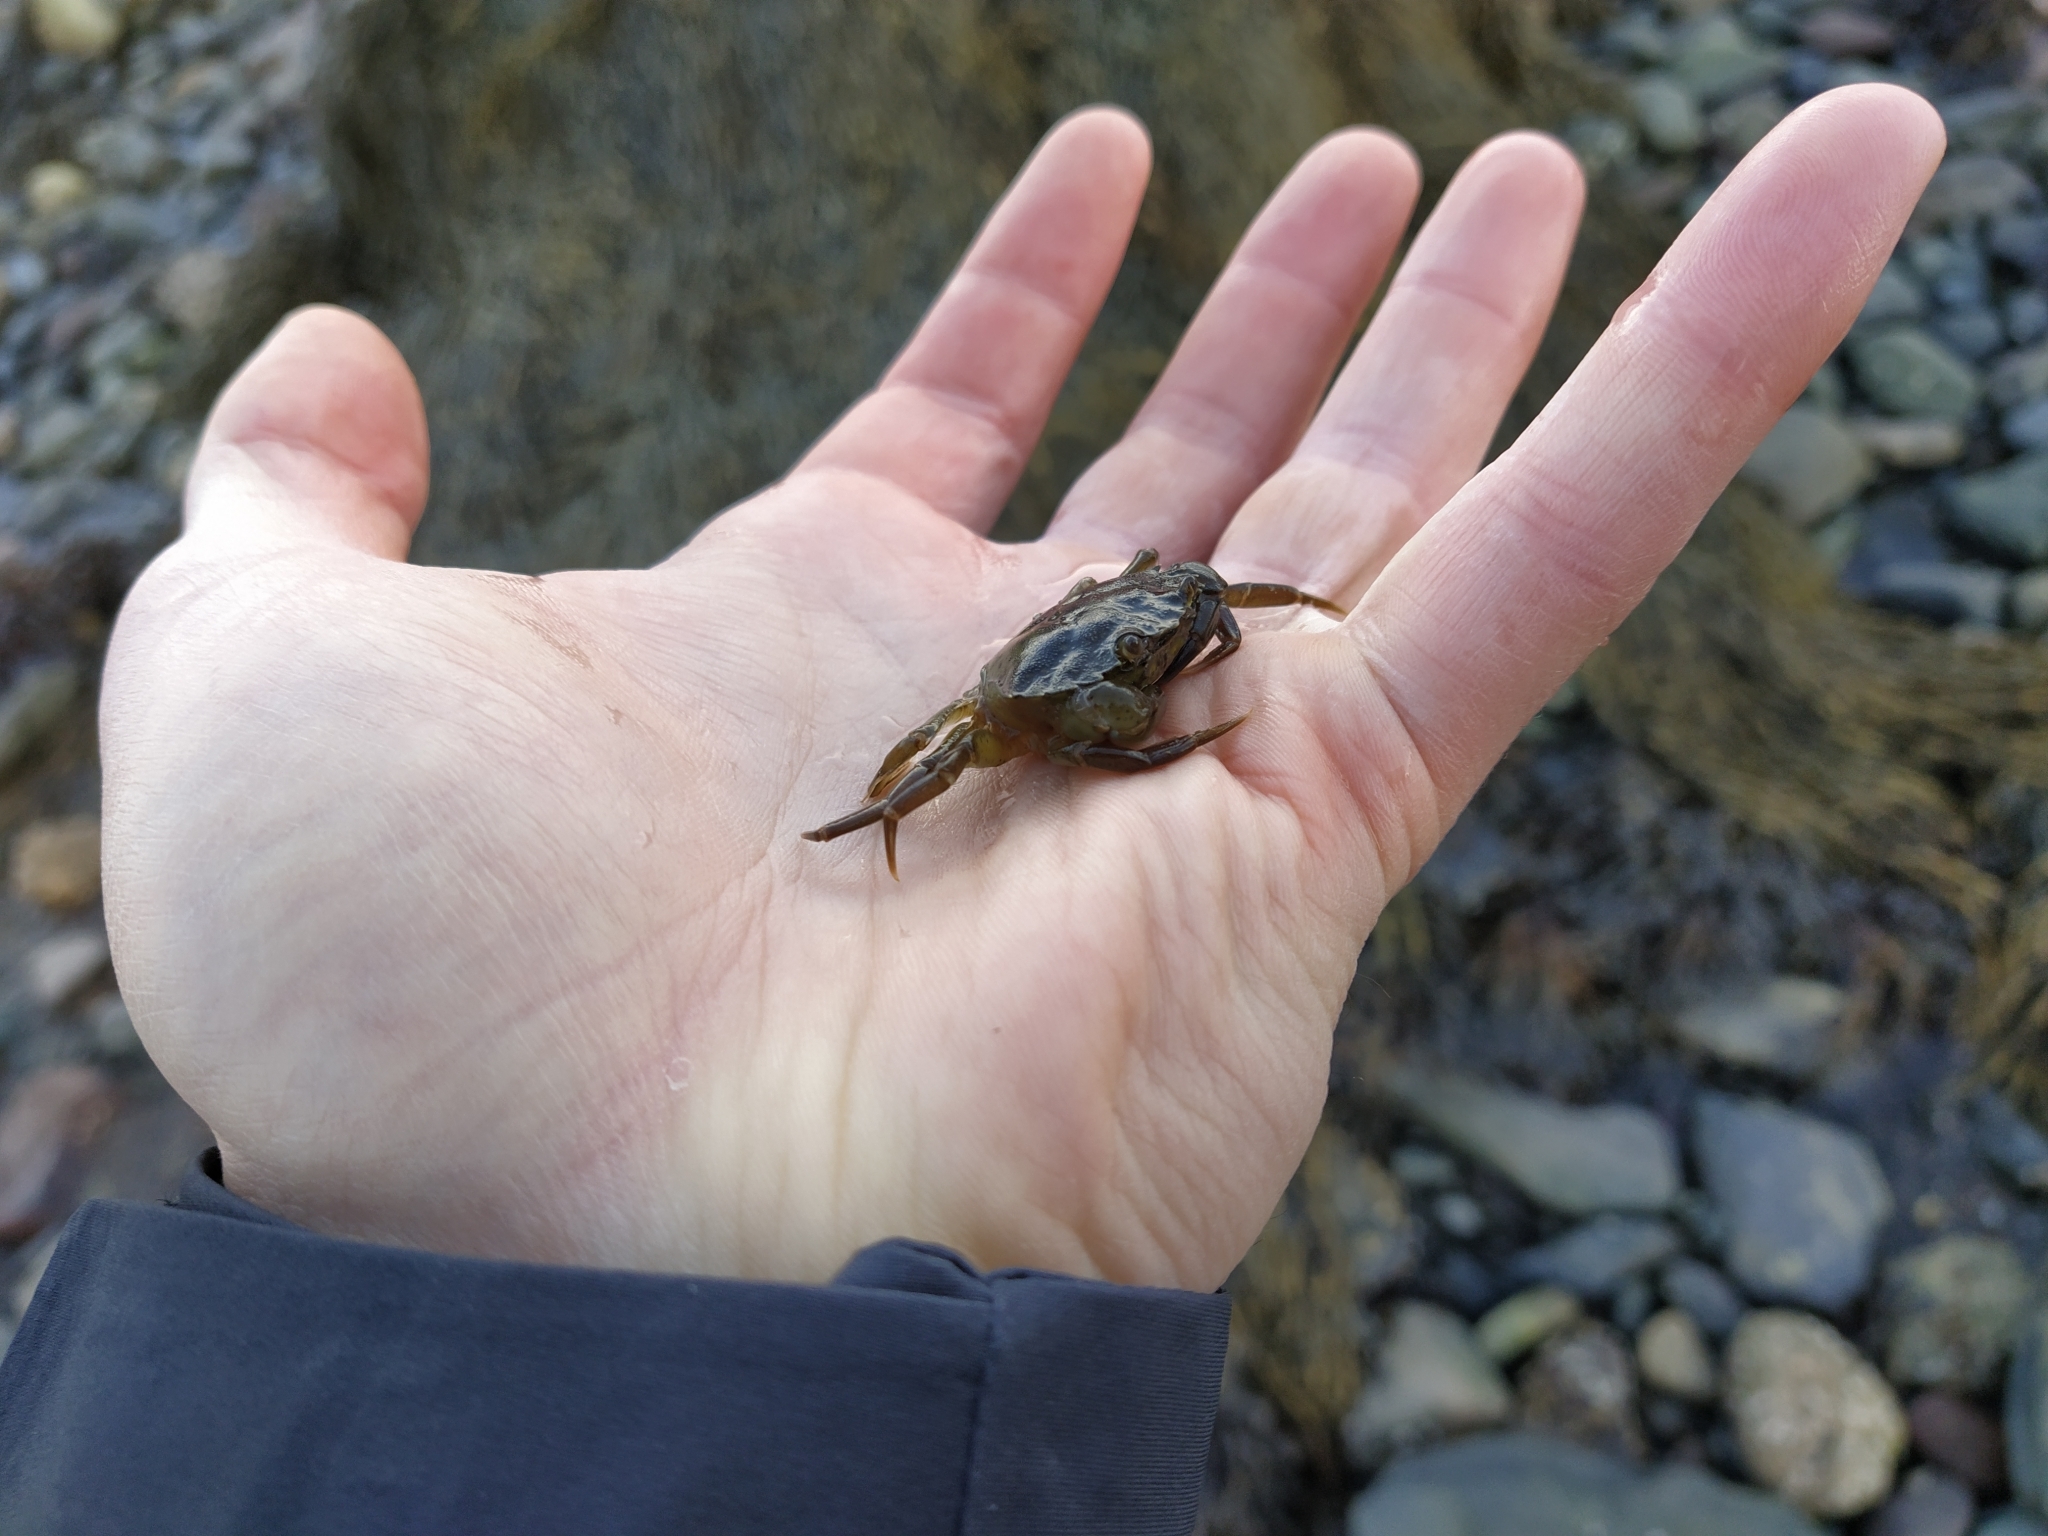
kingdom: Animalia
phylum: Arthropoda
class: Malacostraca
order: Decapoda
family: Carcinidae
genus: Carcinus
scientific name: Carcinus maenas
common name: European green crab
